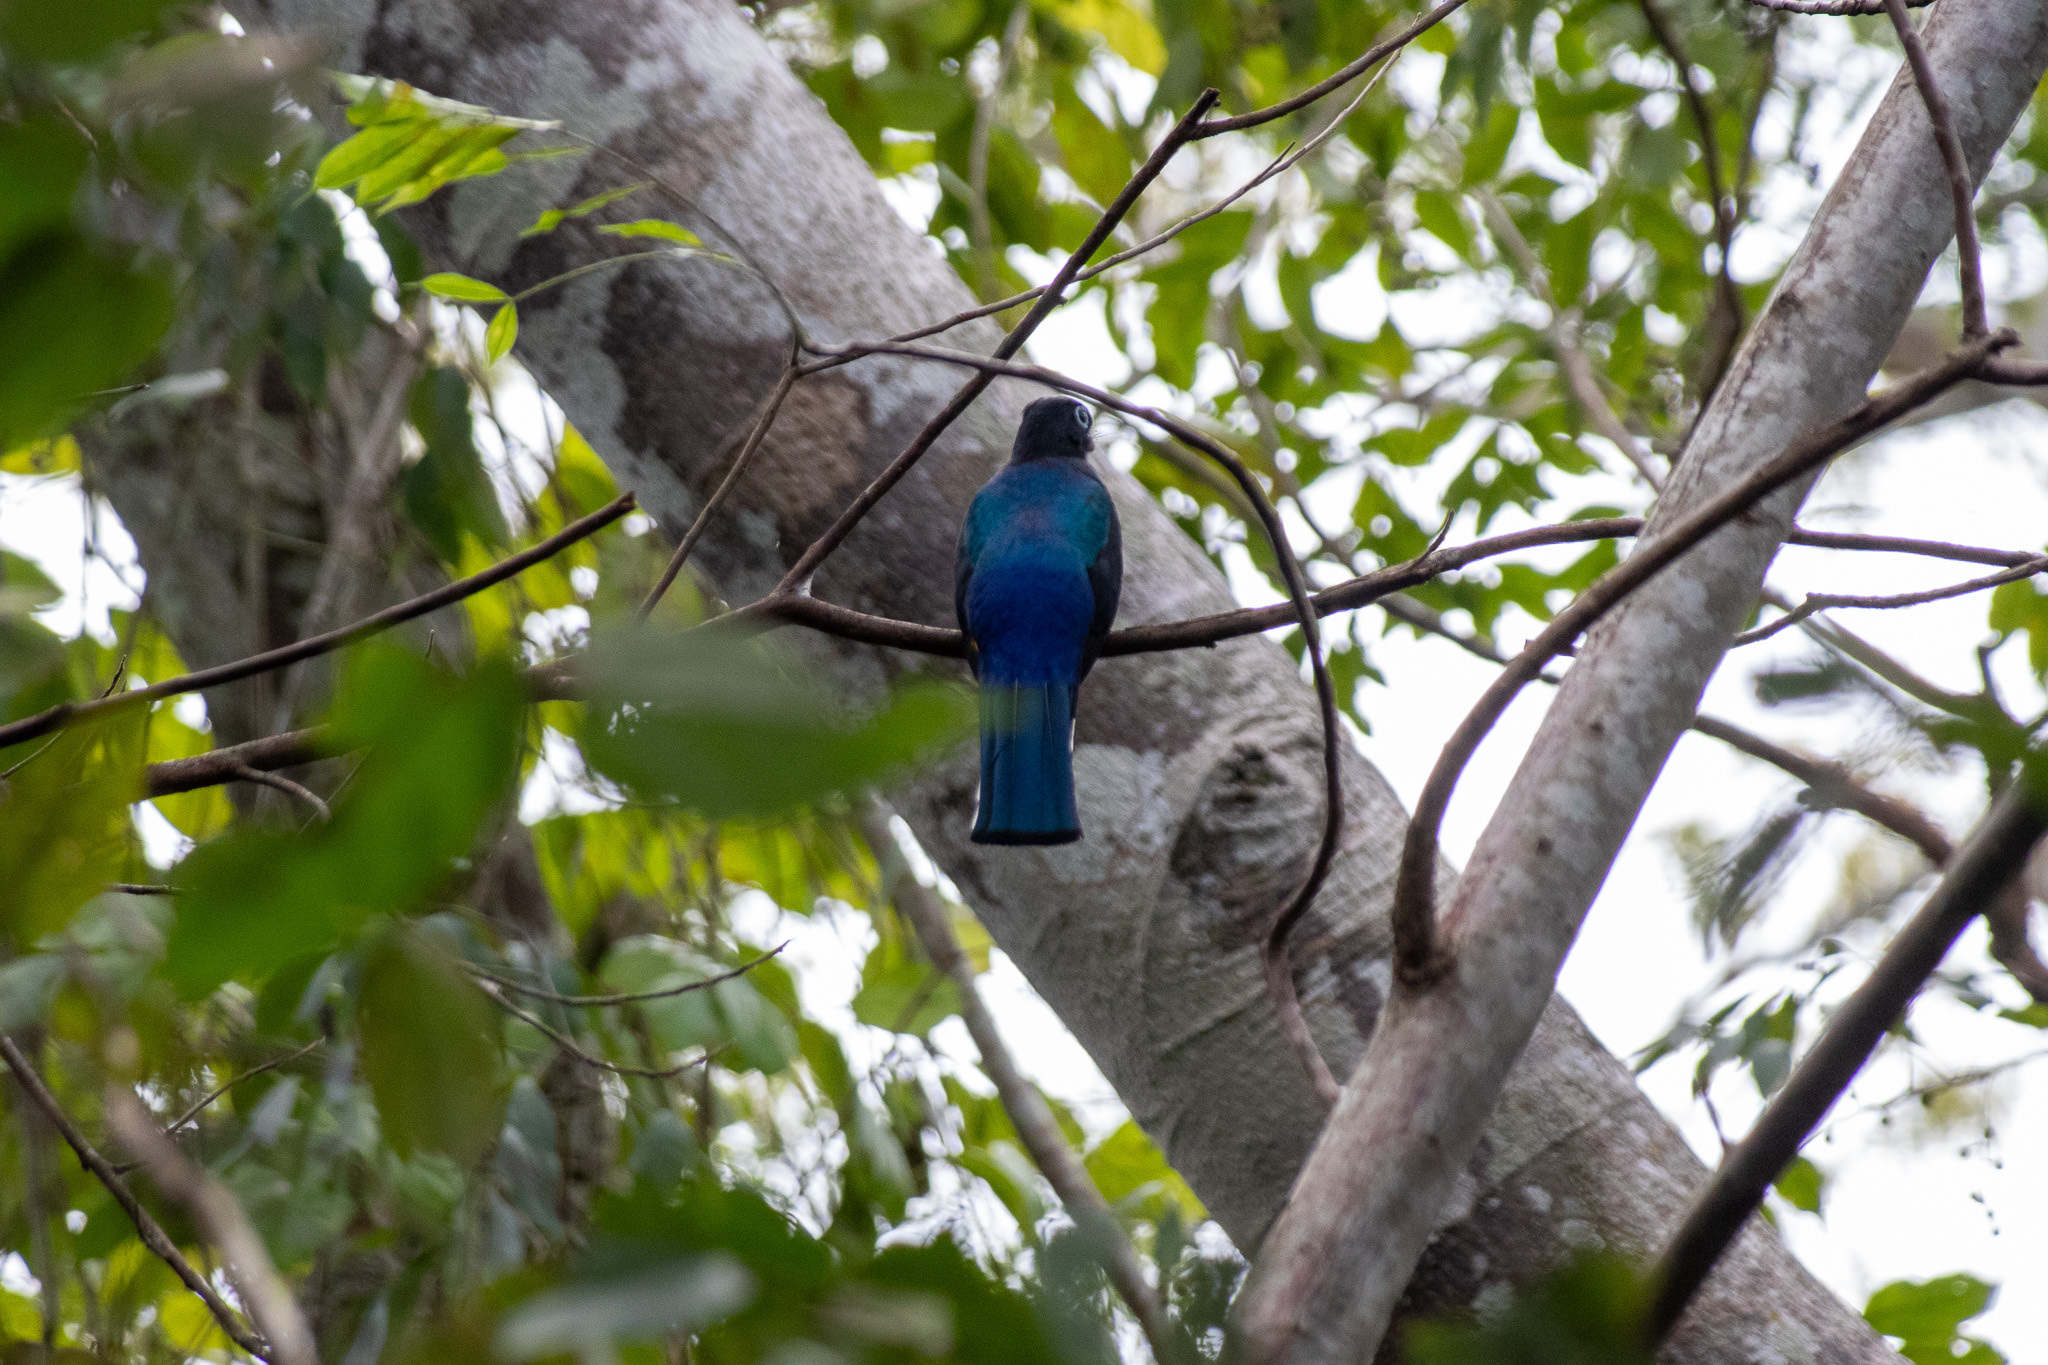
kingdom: Animalia
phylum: Chordata
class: Aves
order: Trogoniformes
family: Trogonidae
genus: Trogon
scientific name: Trogon melanocephalus
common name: Black-headed trogon
